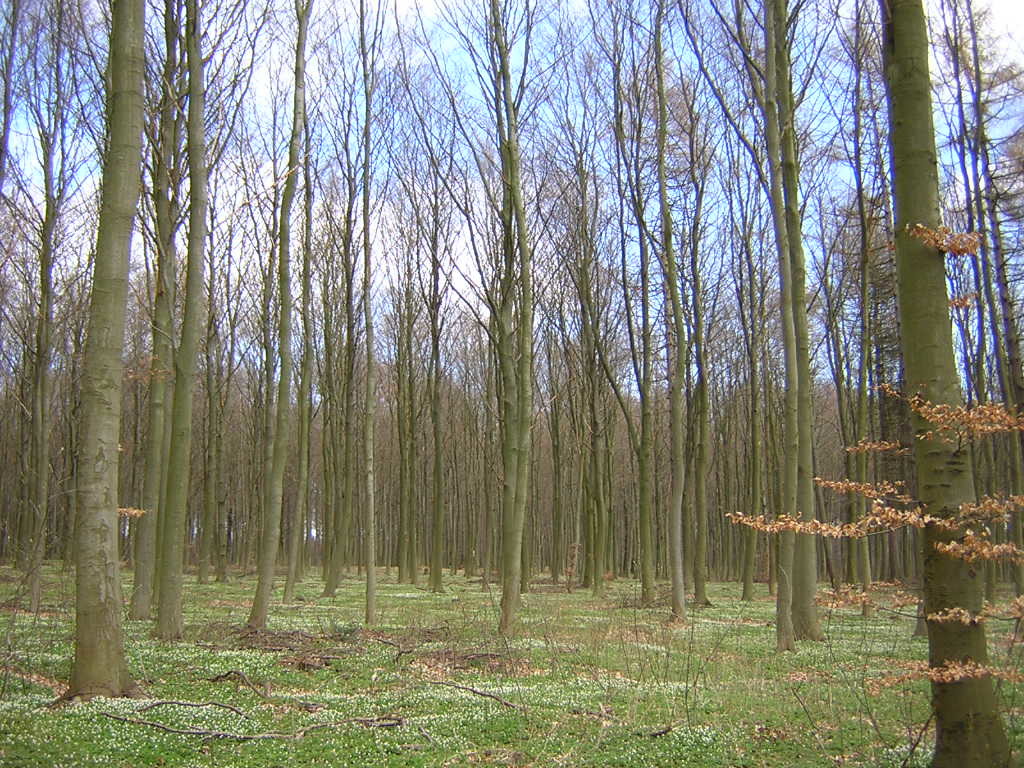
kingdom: Plantae
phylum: Tracheophyta
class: Magnoliopsida
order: Fagales
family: Fagaceae
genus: Fagus
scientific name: Fagus sylvatica
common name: Beech
